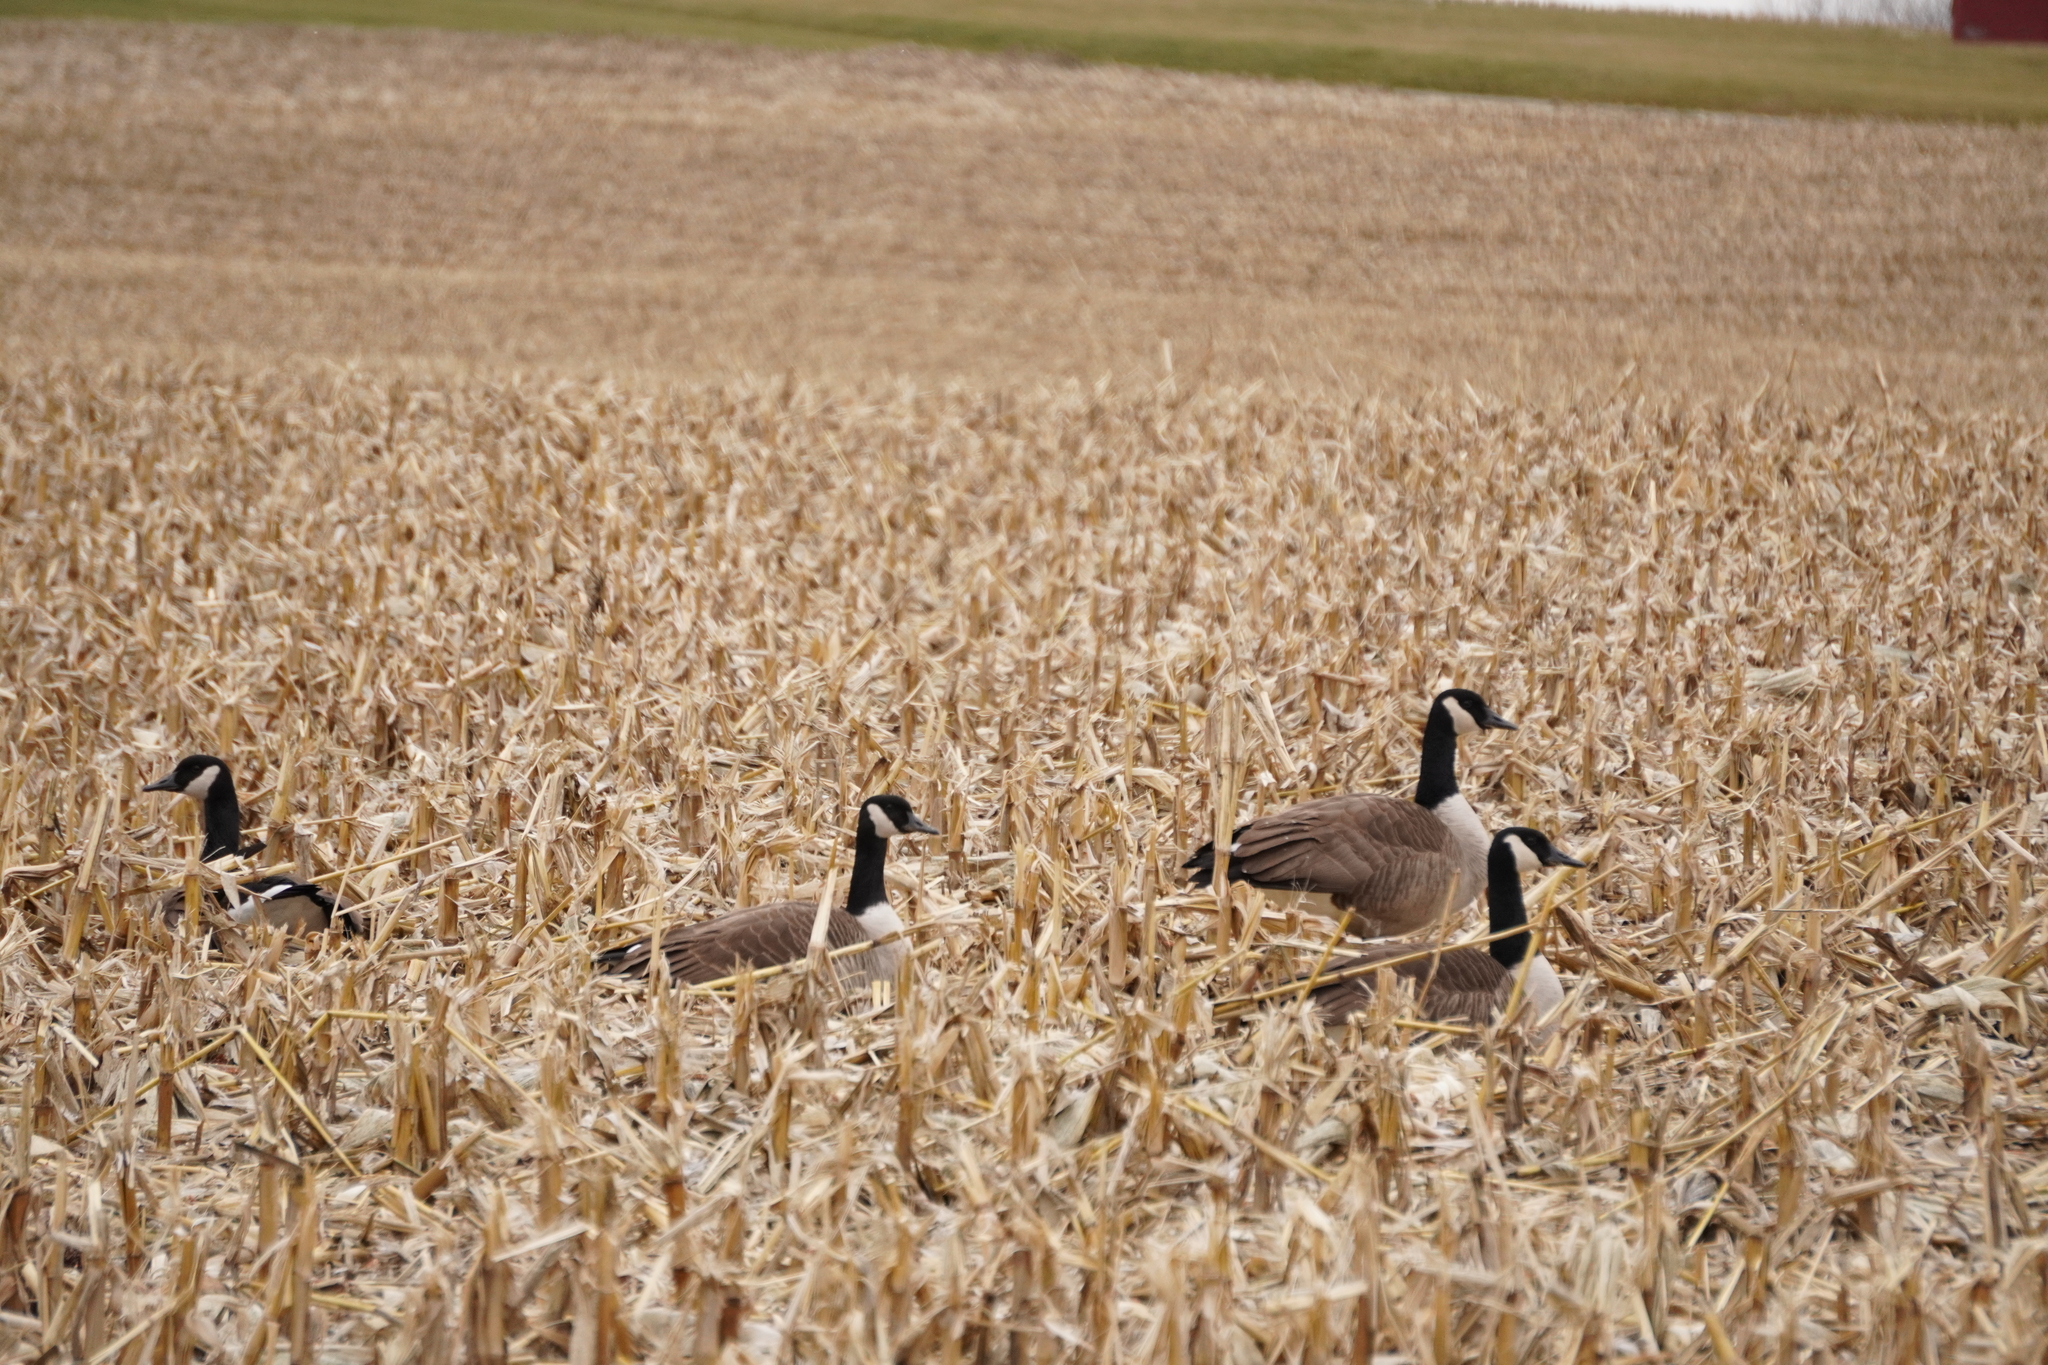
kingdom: Animalia
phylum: Chordata
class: Aves
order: Anseriformes
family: Anatidae
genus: Branta
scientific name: Branta canadensis
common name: Canada goose
